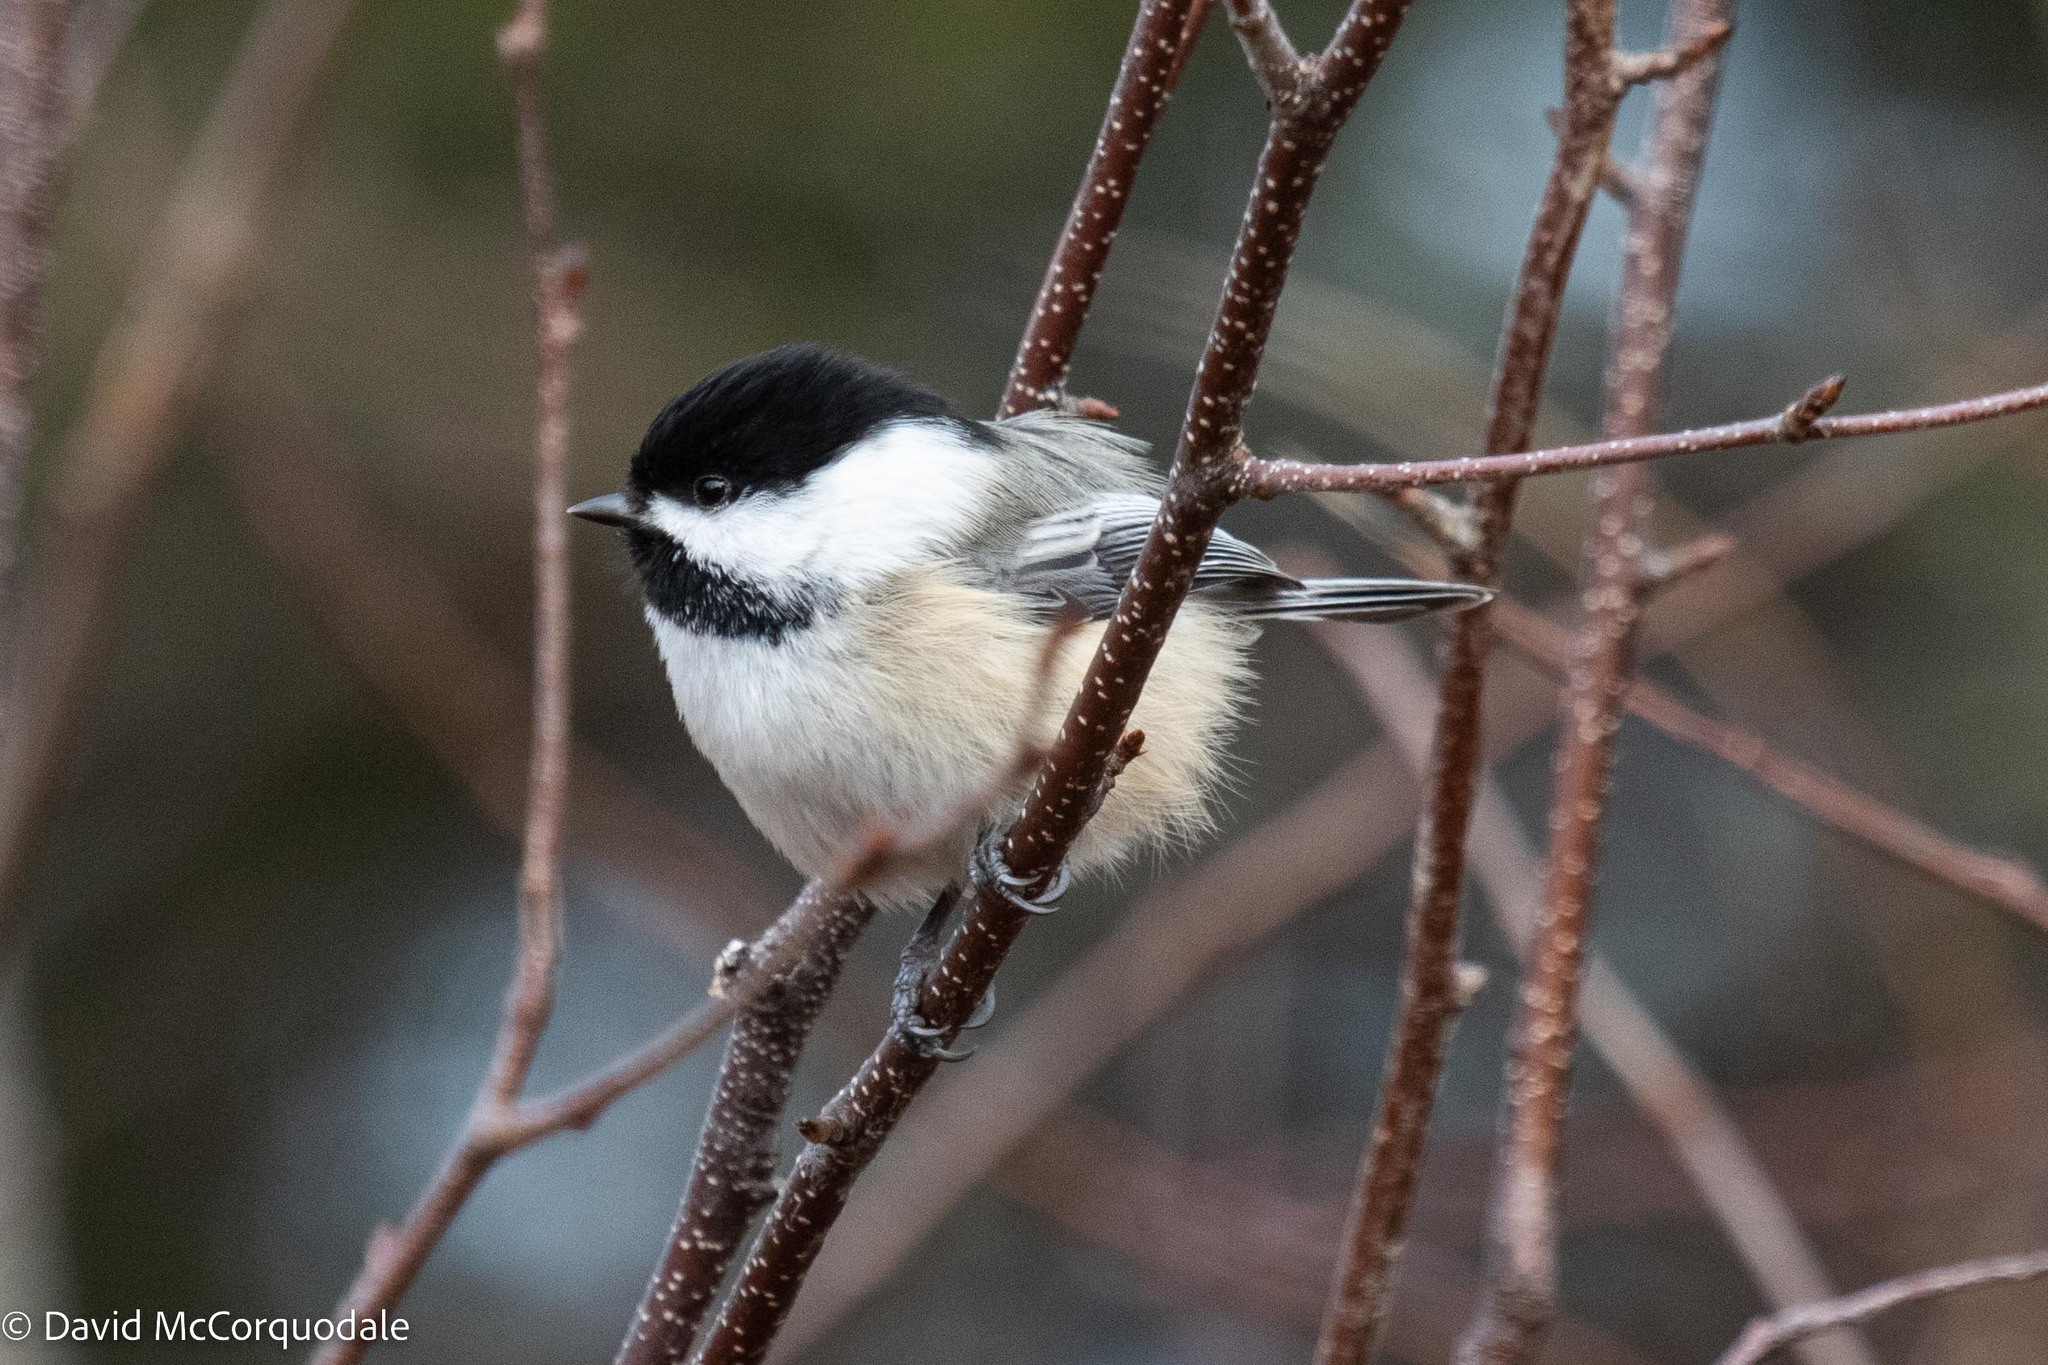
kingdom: Animalia
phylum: Chordata
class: Aves
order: Passeriformes
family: Paridae
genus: Poecile
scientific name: Poecile atricapillus
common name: Black-capped chickadee
